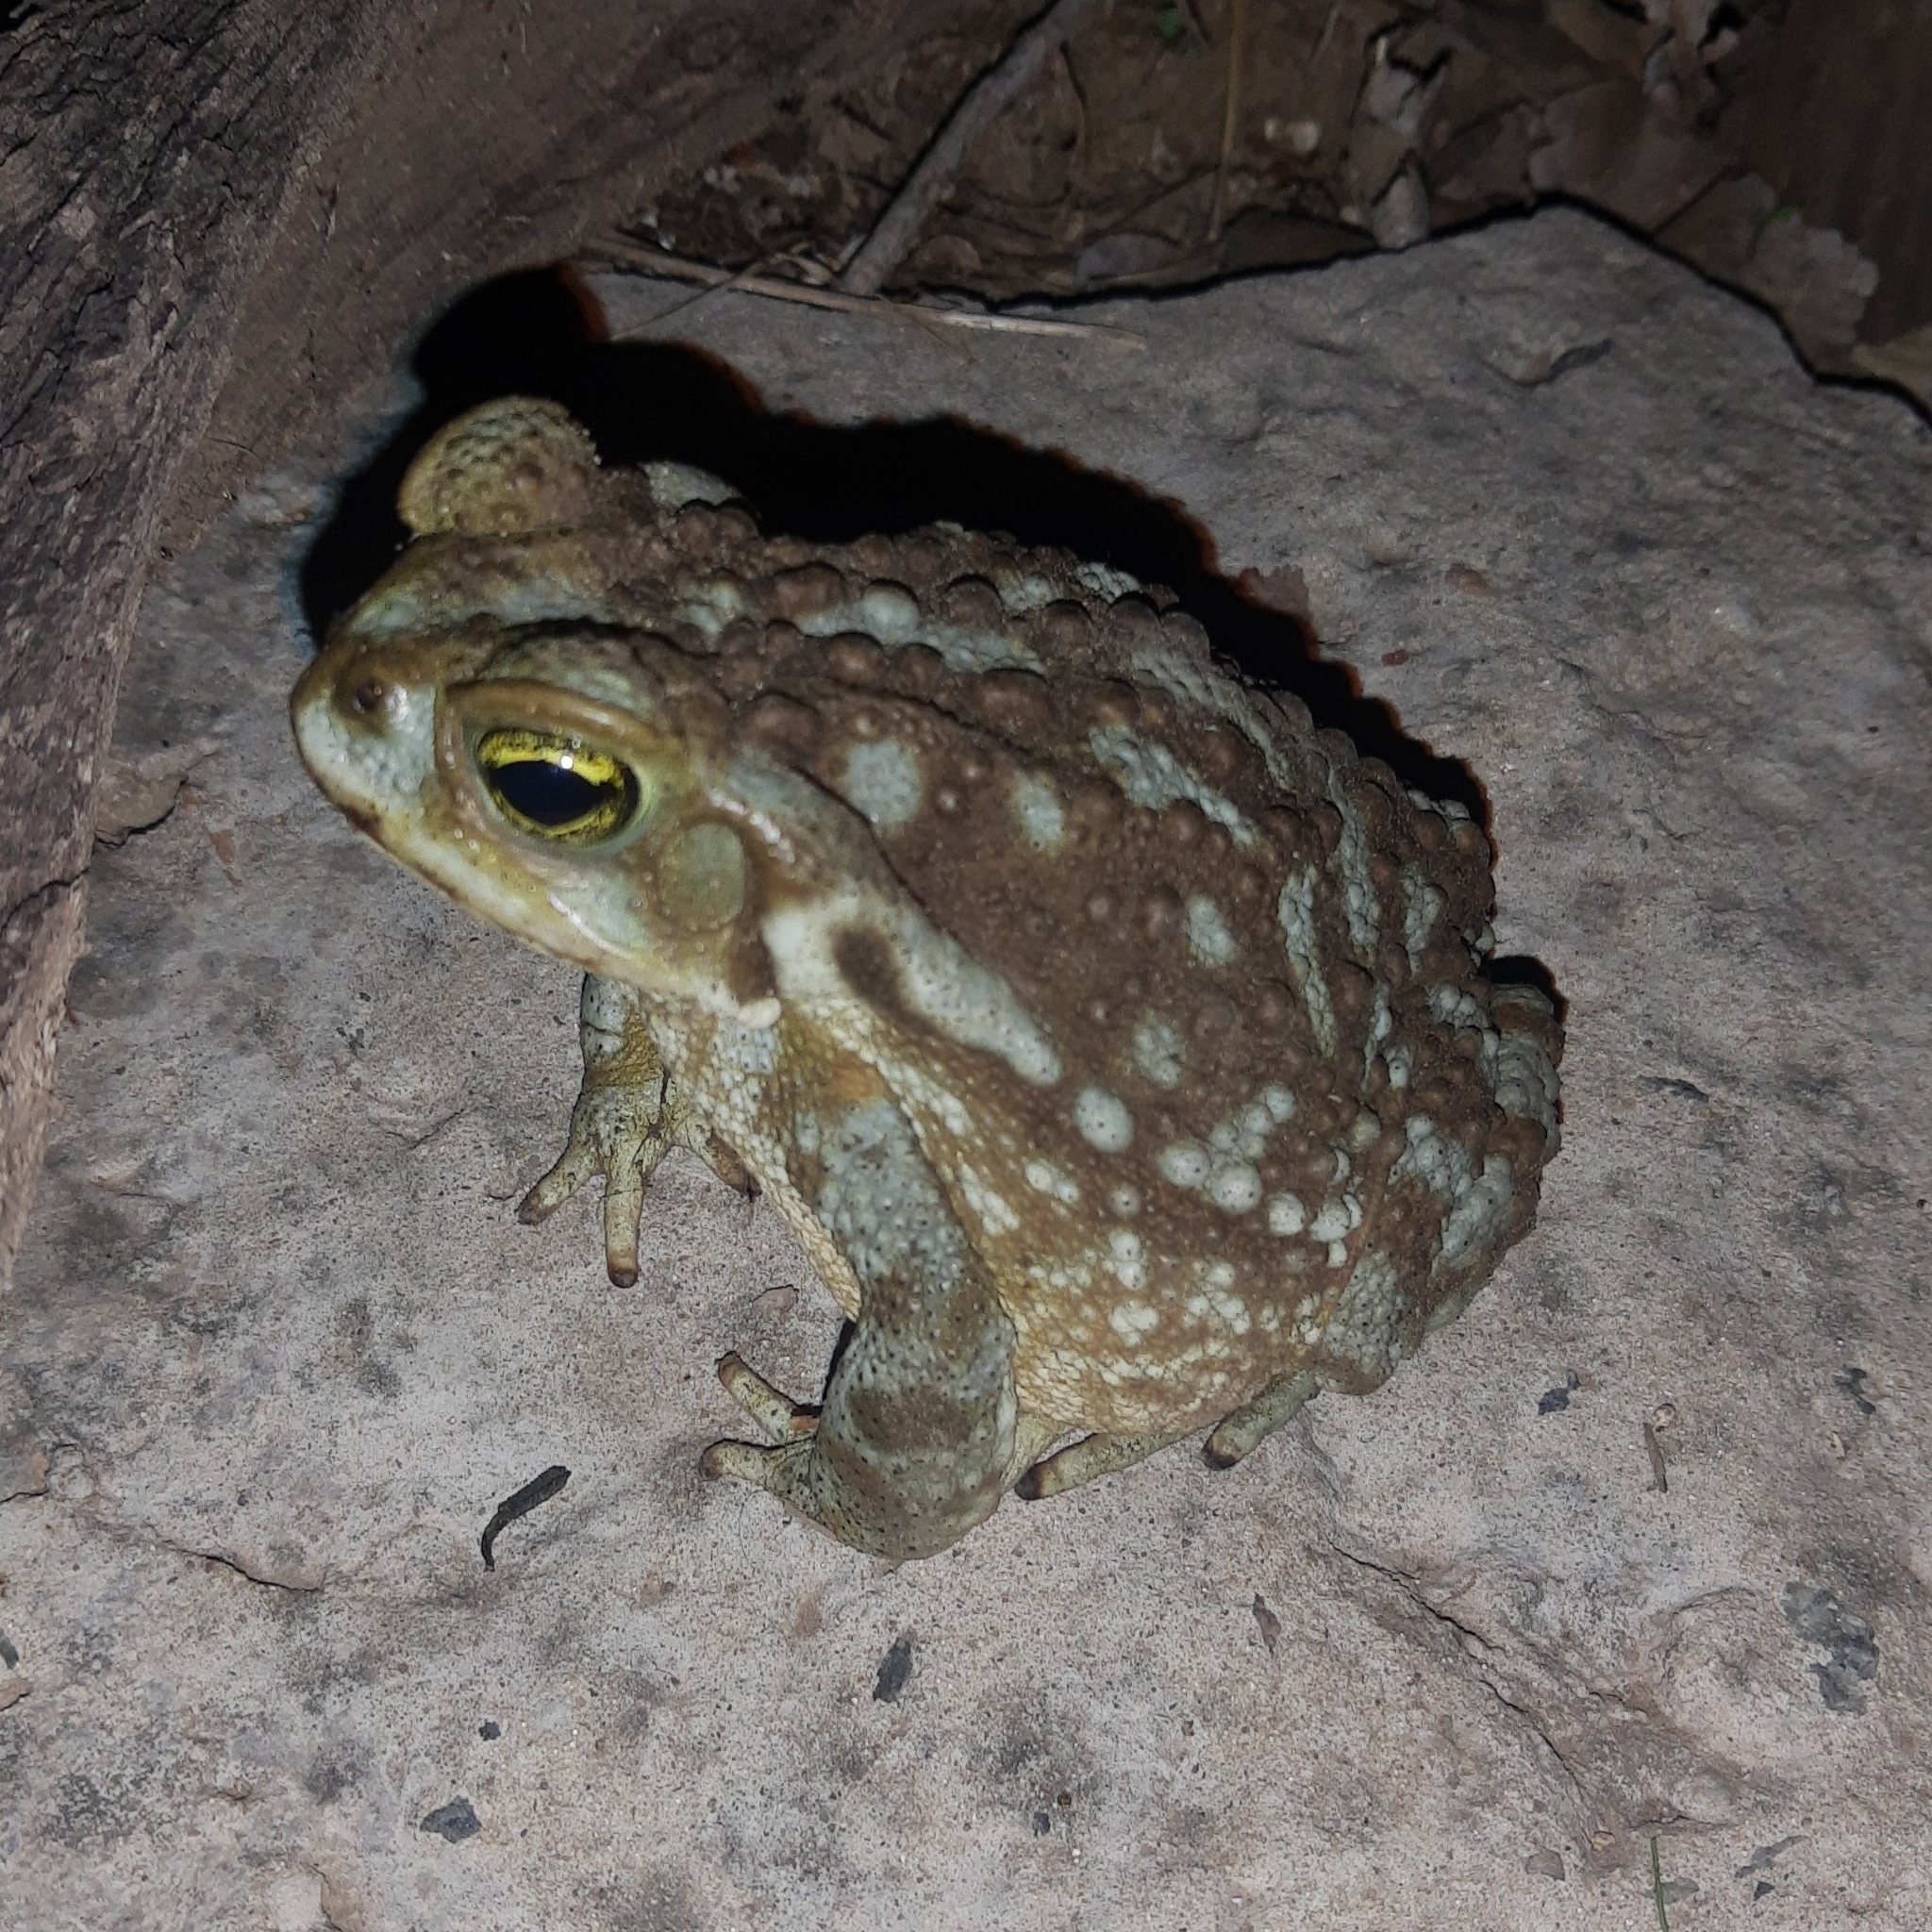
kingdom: Animalia
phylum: Chordata
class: Amphibia
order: Anura
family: Bufonidae
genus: Rhinella
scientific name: Rhinella arenarum
